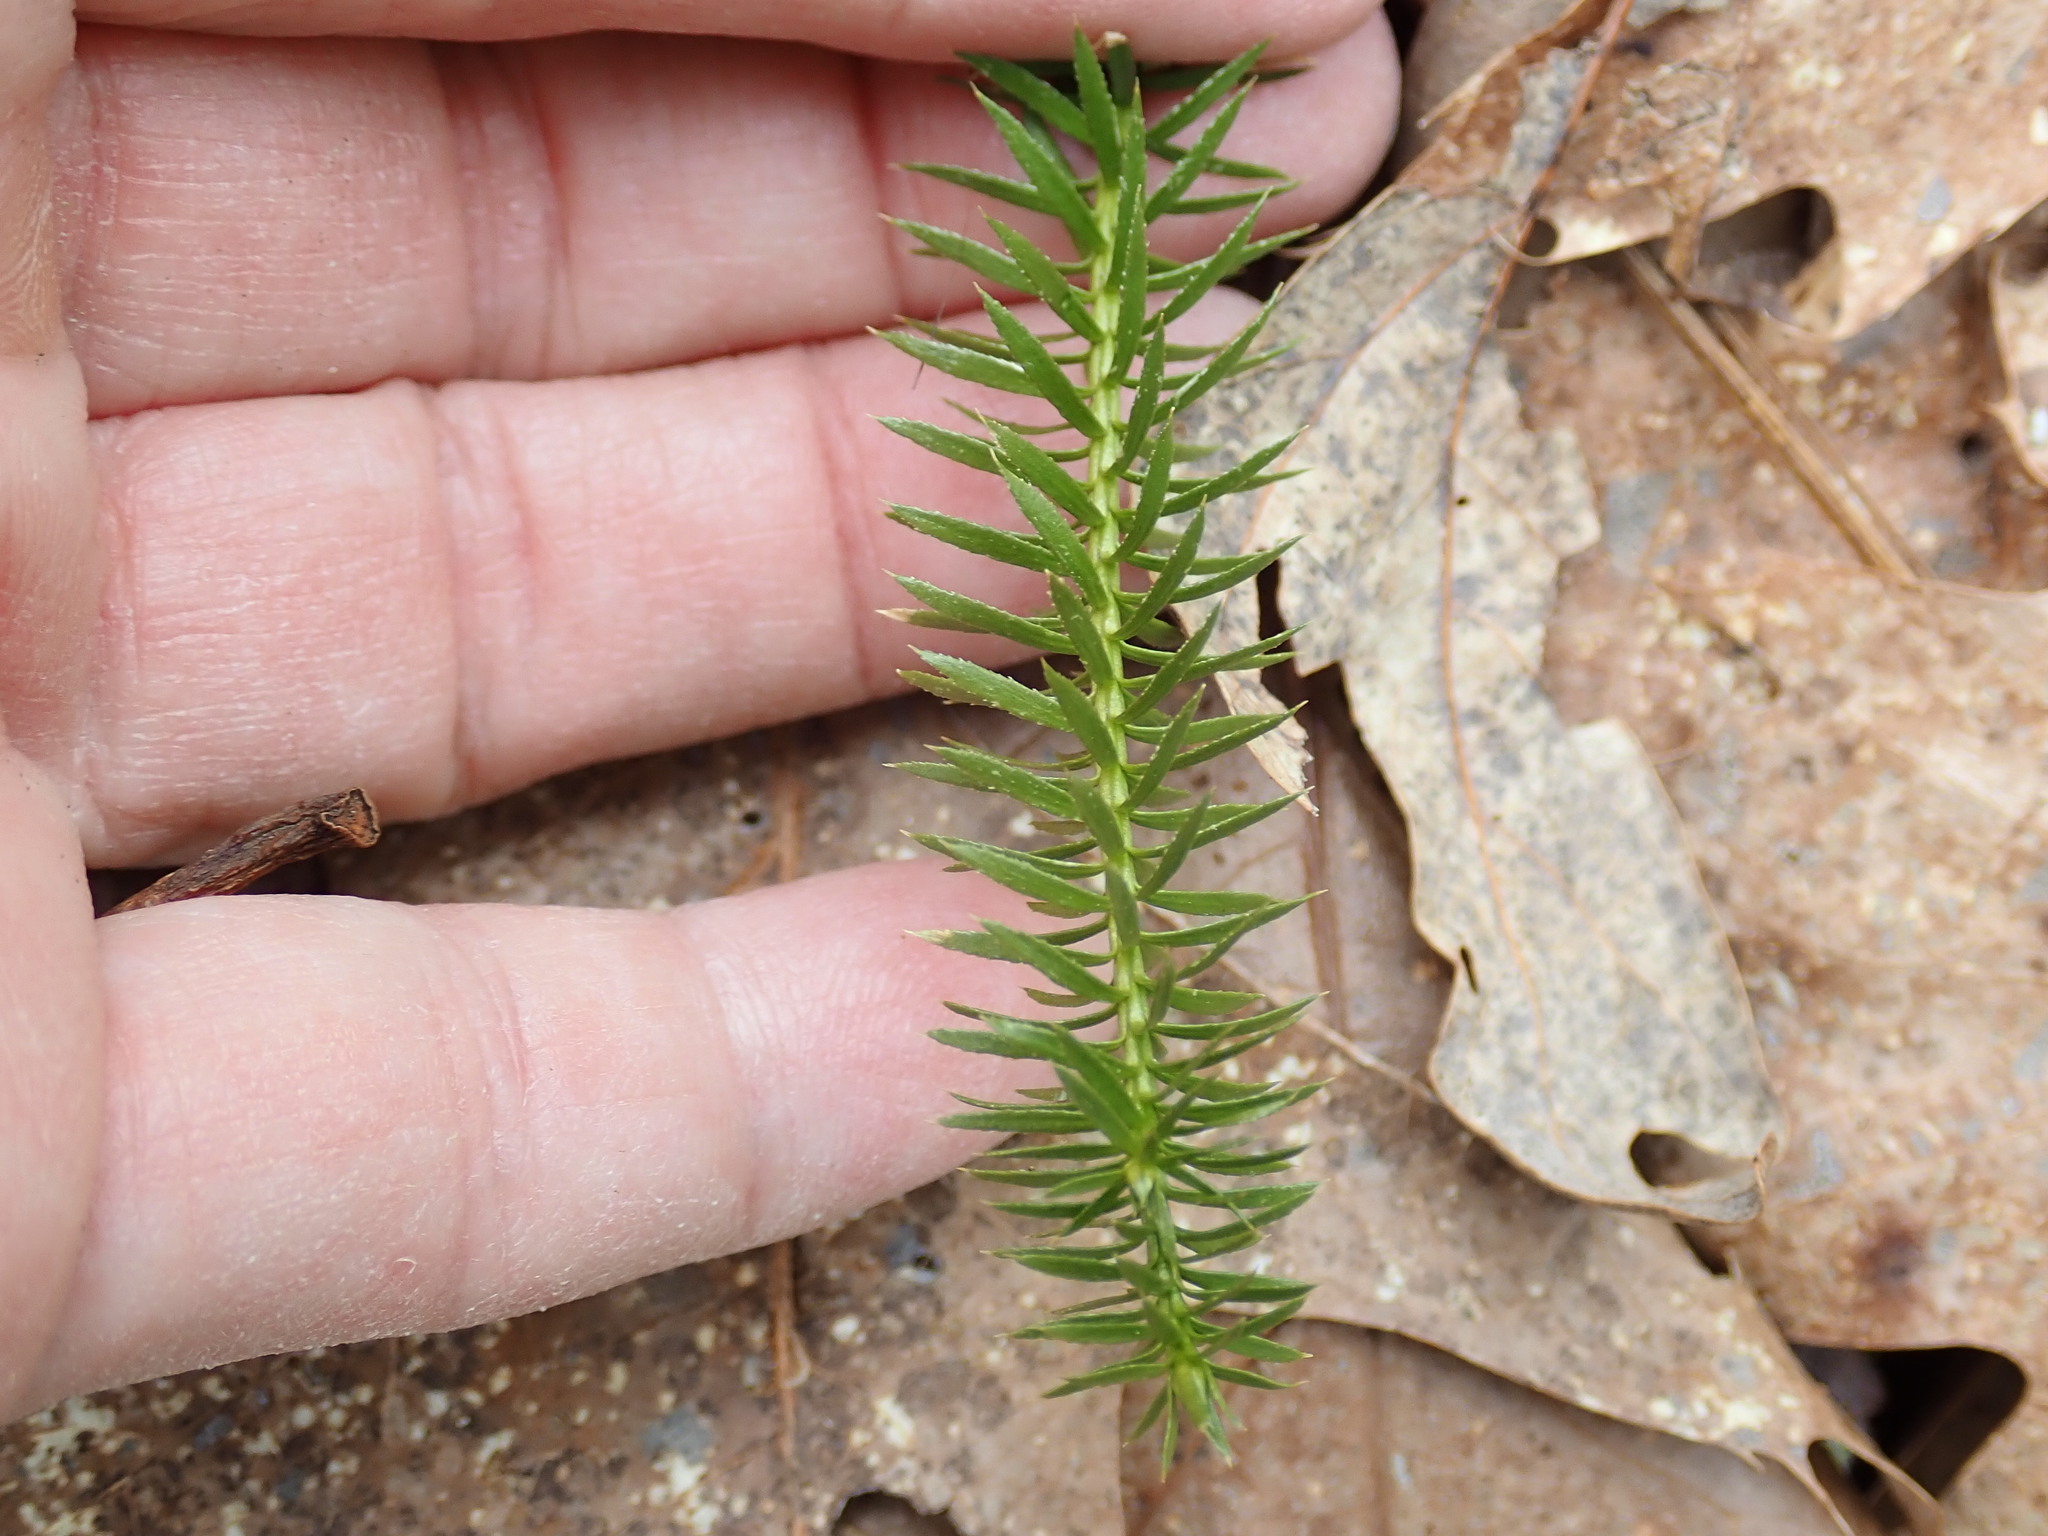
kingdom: Plantae
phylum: Tracheophyta
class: Lycopodiopsida
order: Lycopodiales
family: Lycopodiaceae
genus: Spinulum
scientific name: Spinulum annotinum
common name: Interrupted club-moss
